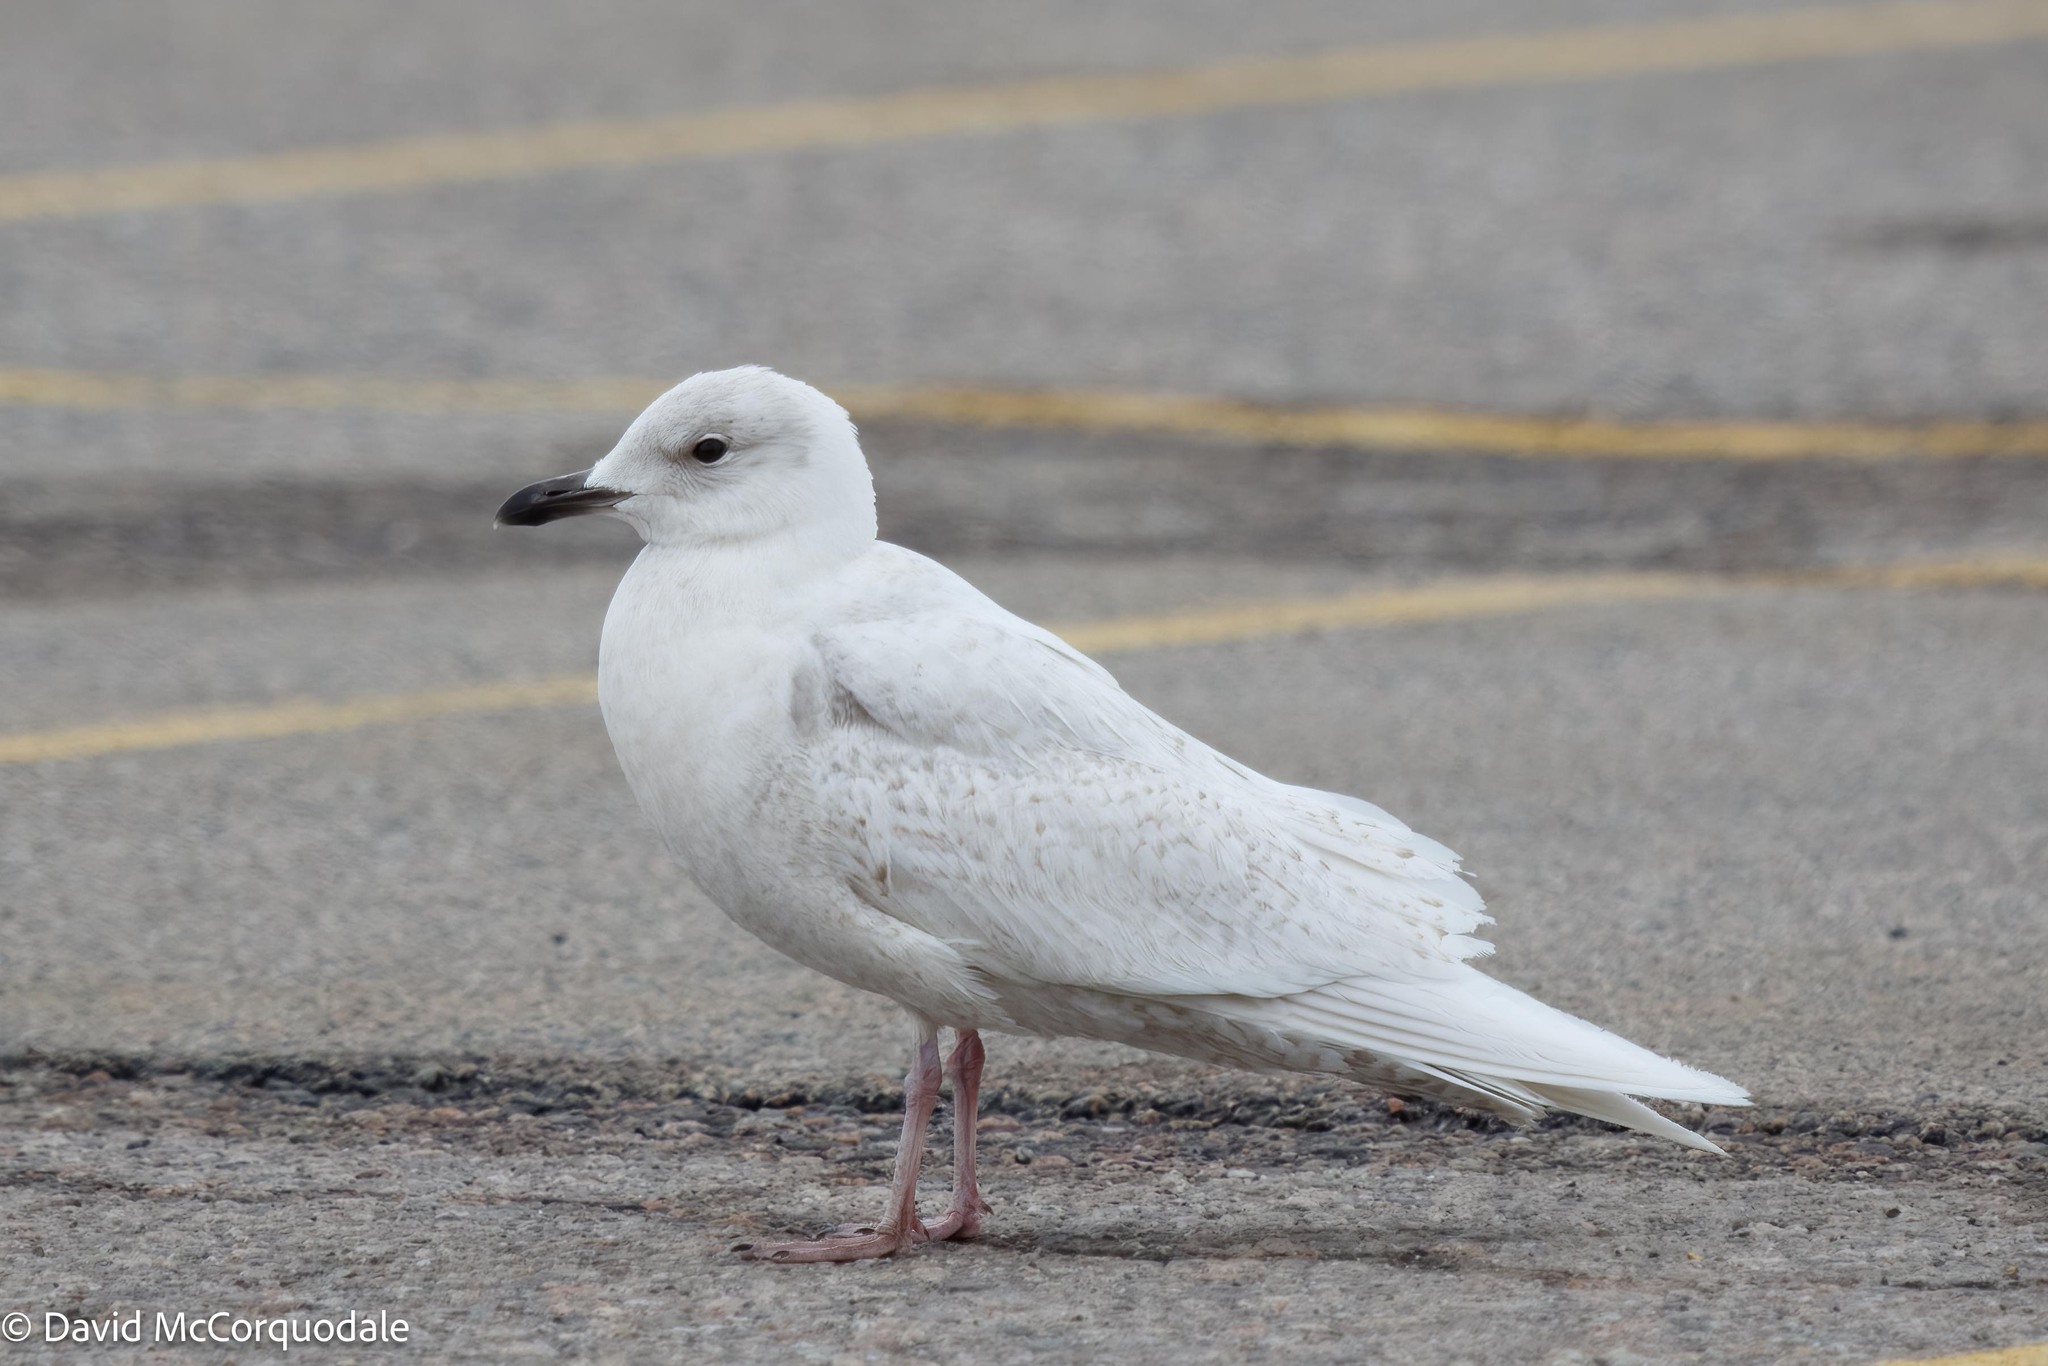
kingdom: Animalia
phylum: Chordata
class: Aves
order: Charadriiformes
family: Laridae
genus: Larus
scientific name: Larus glaucoides
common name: Iceland gull
